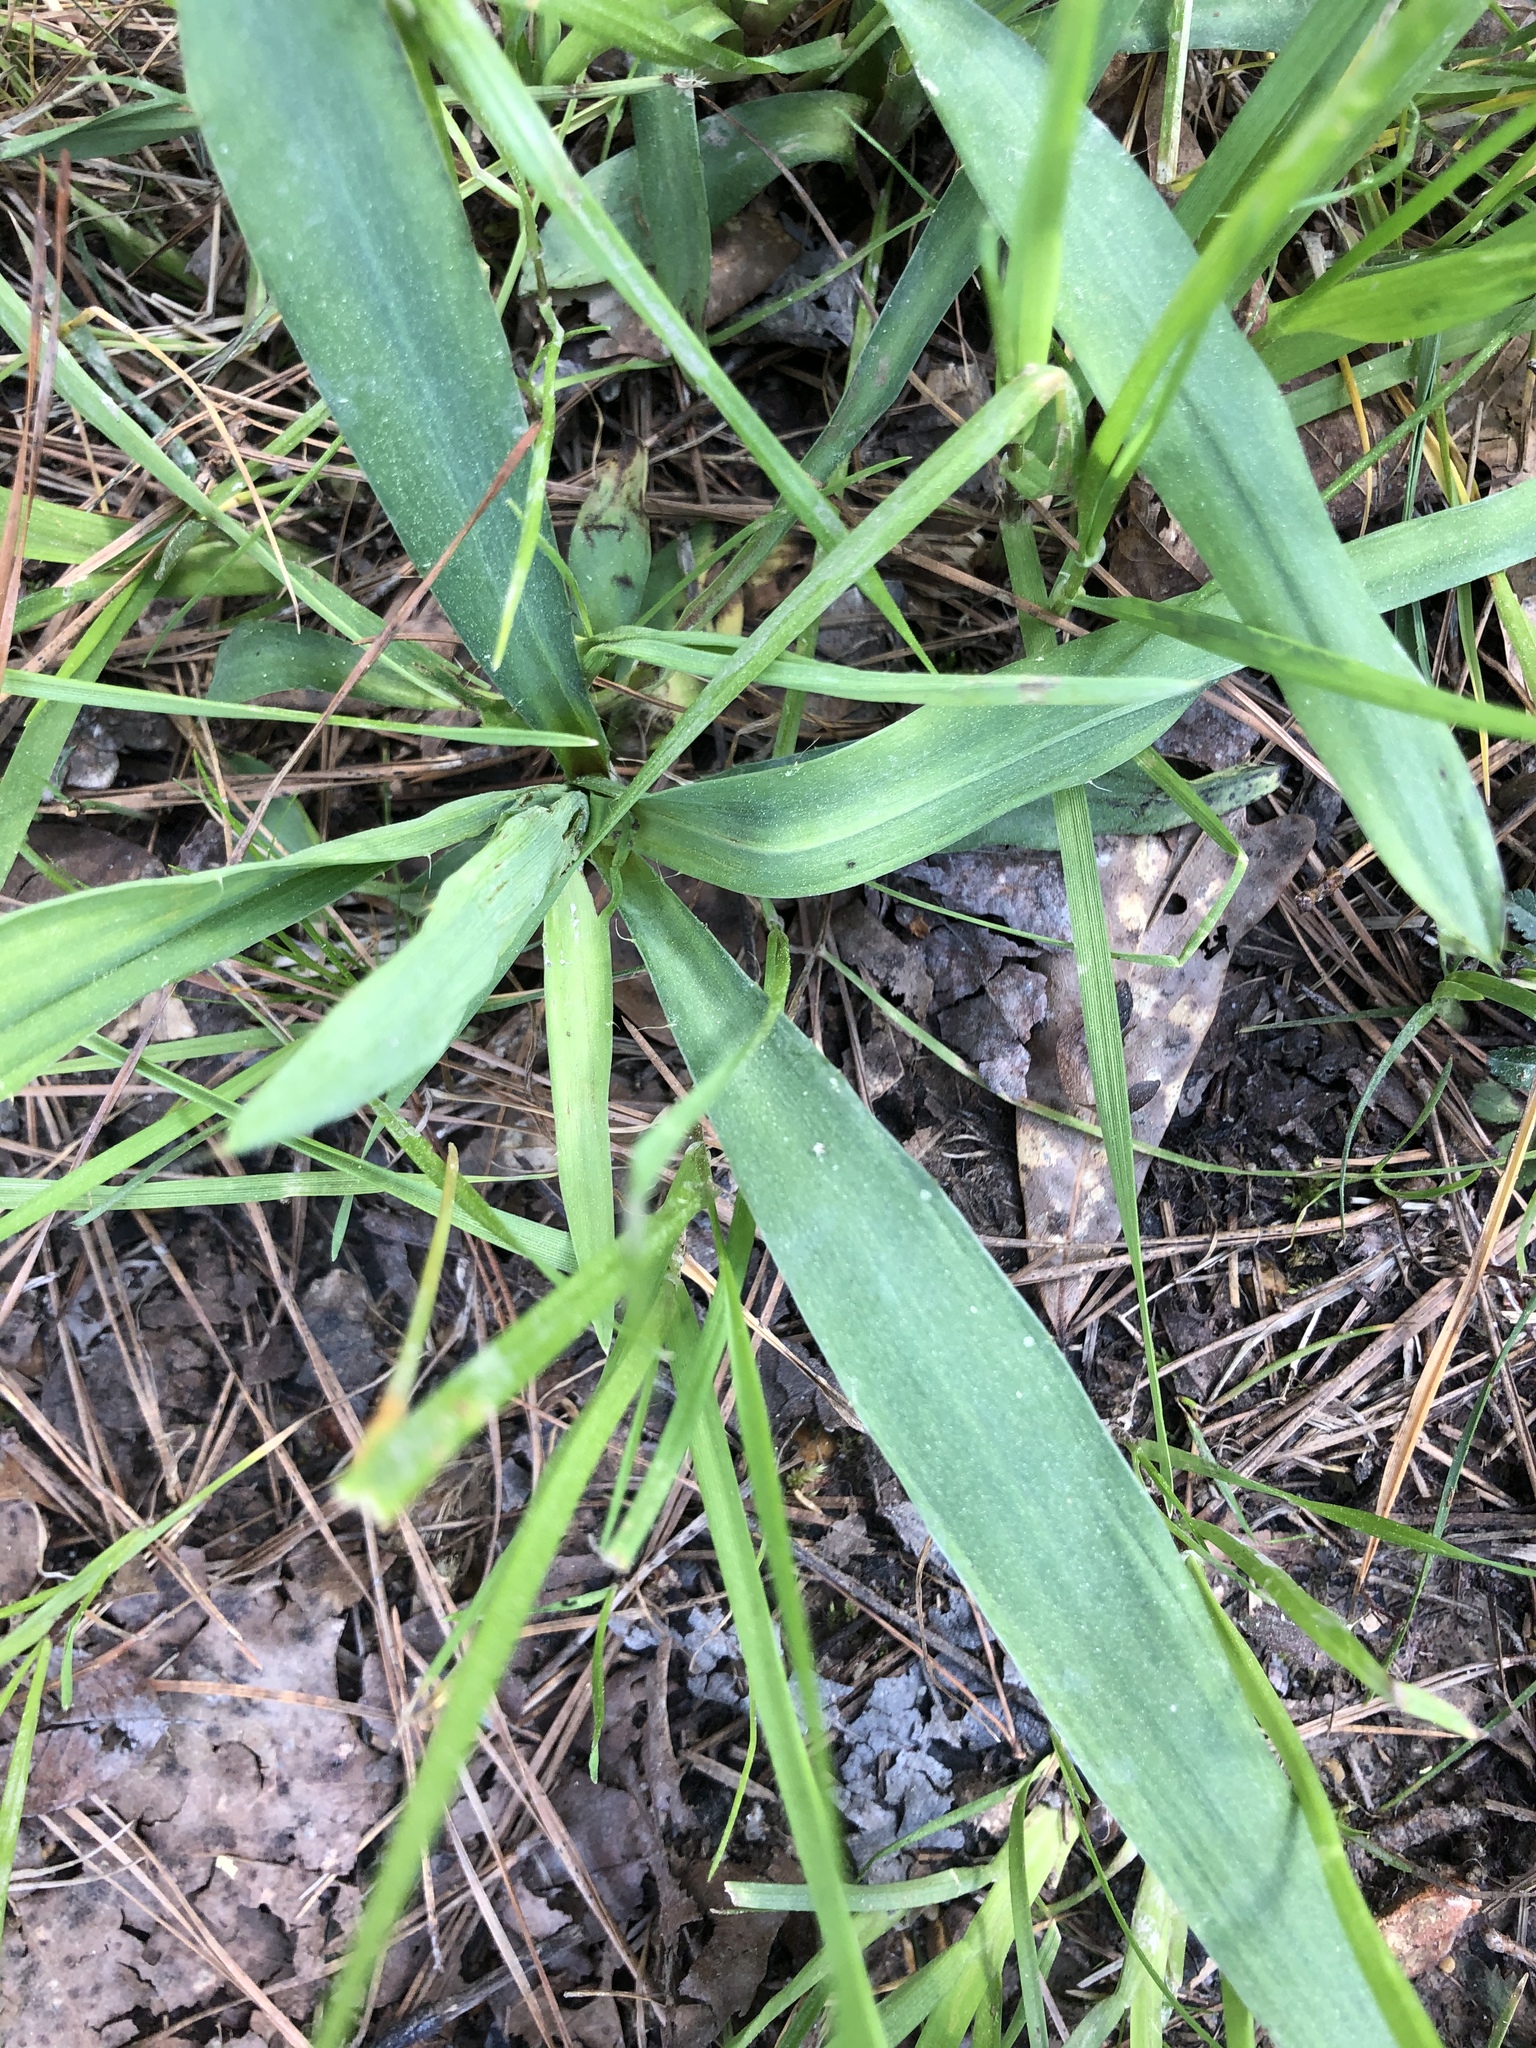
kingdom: Plantae
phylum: Tracheophyta
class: Magnoliopsida
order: Apiales
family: Apiaceae
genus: Eryngium
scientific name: Eryngium yuccifolium
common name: Button eryngo
